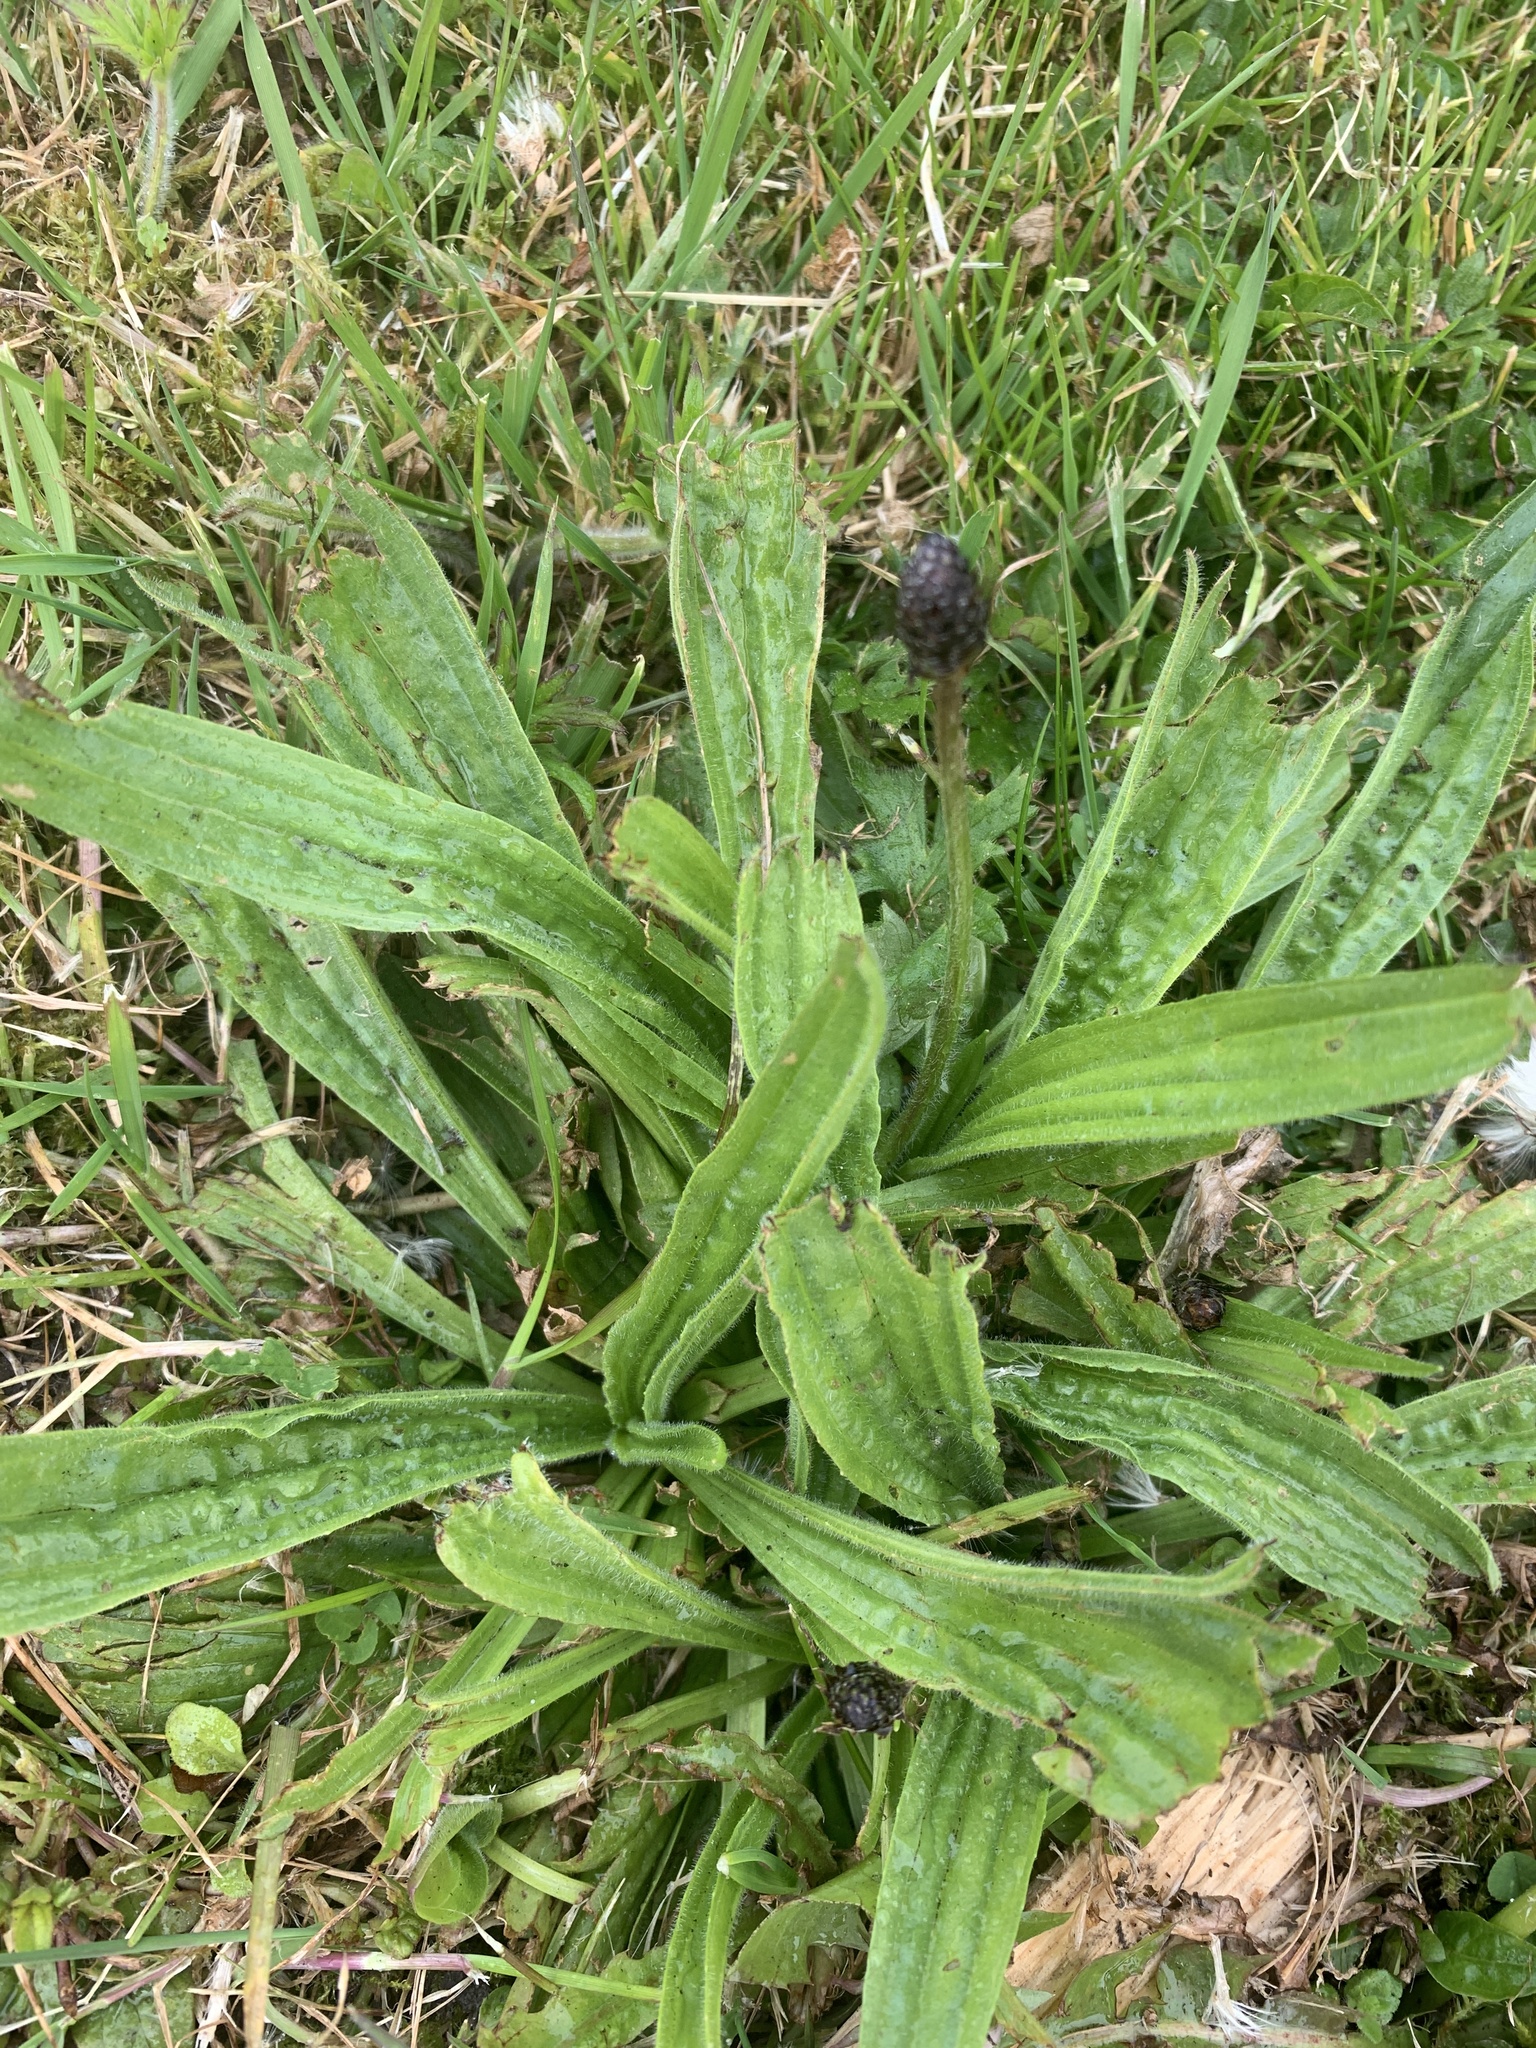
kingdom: Plantae
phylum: Tracheophyta
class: Magnoliopsida
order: Lamiales
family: Plantaginaceae
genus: Plantago
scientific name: Plantago lanceolata
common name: Ribwort plantain
